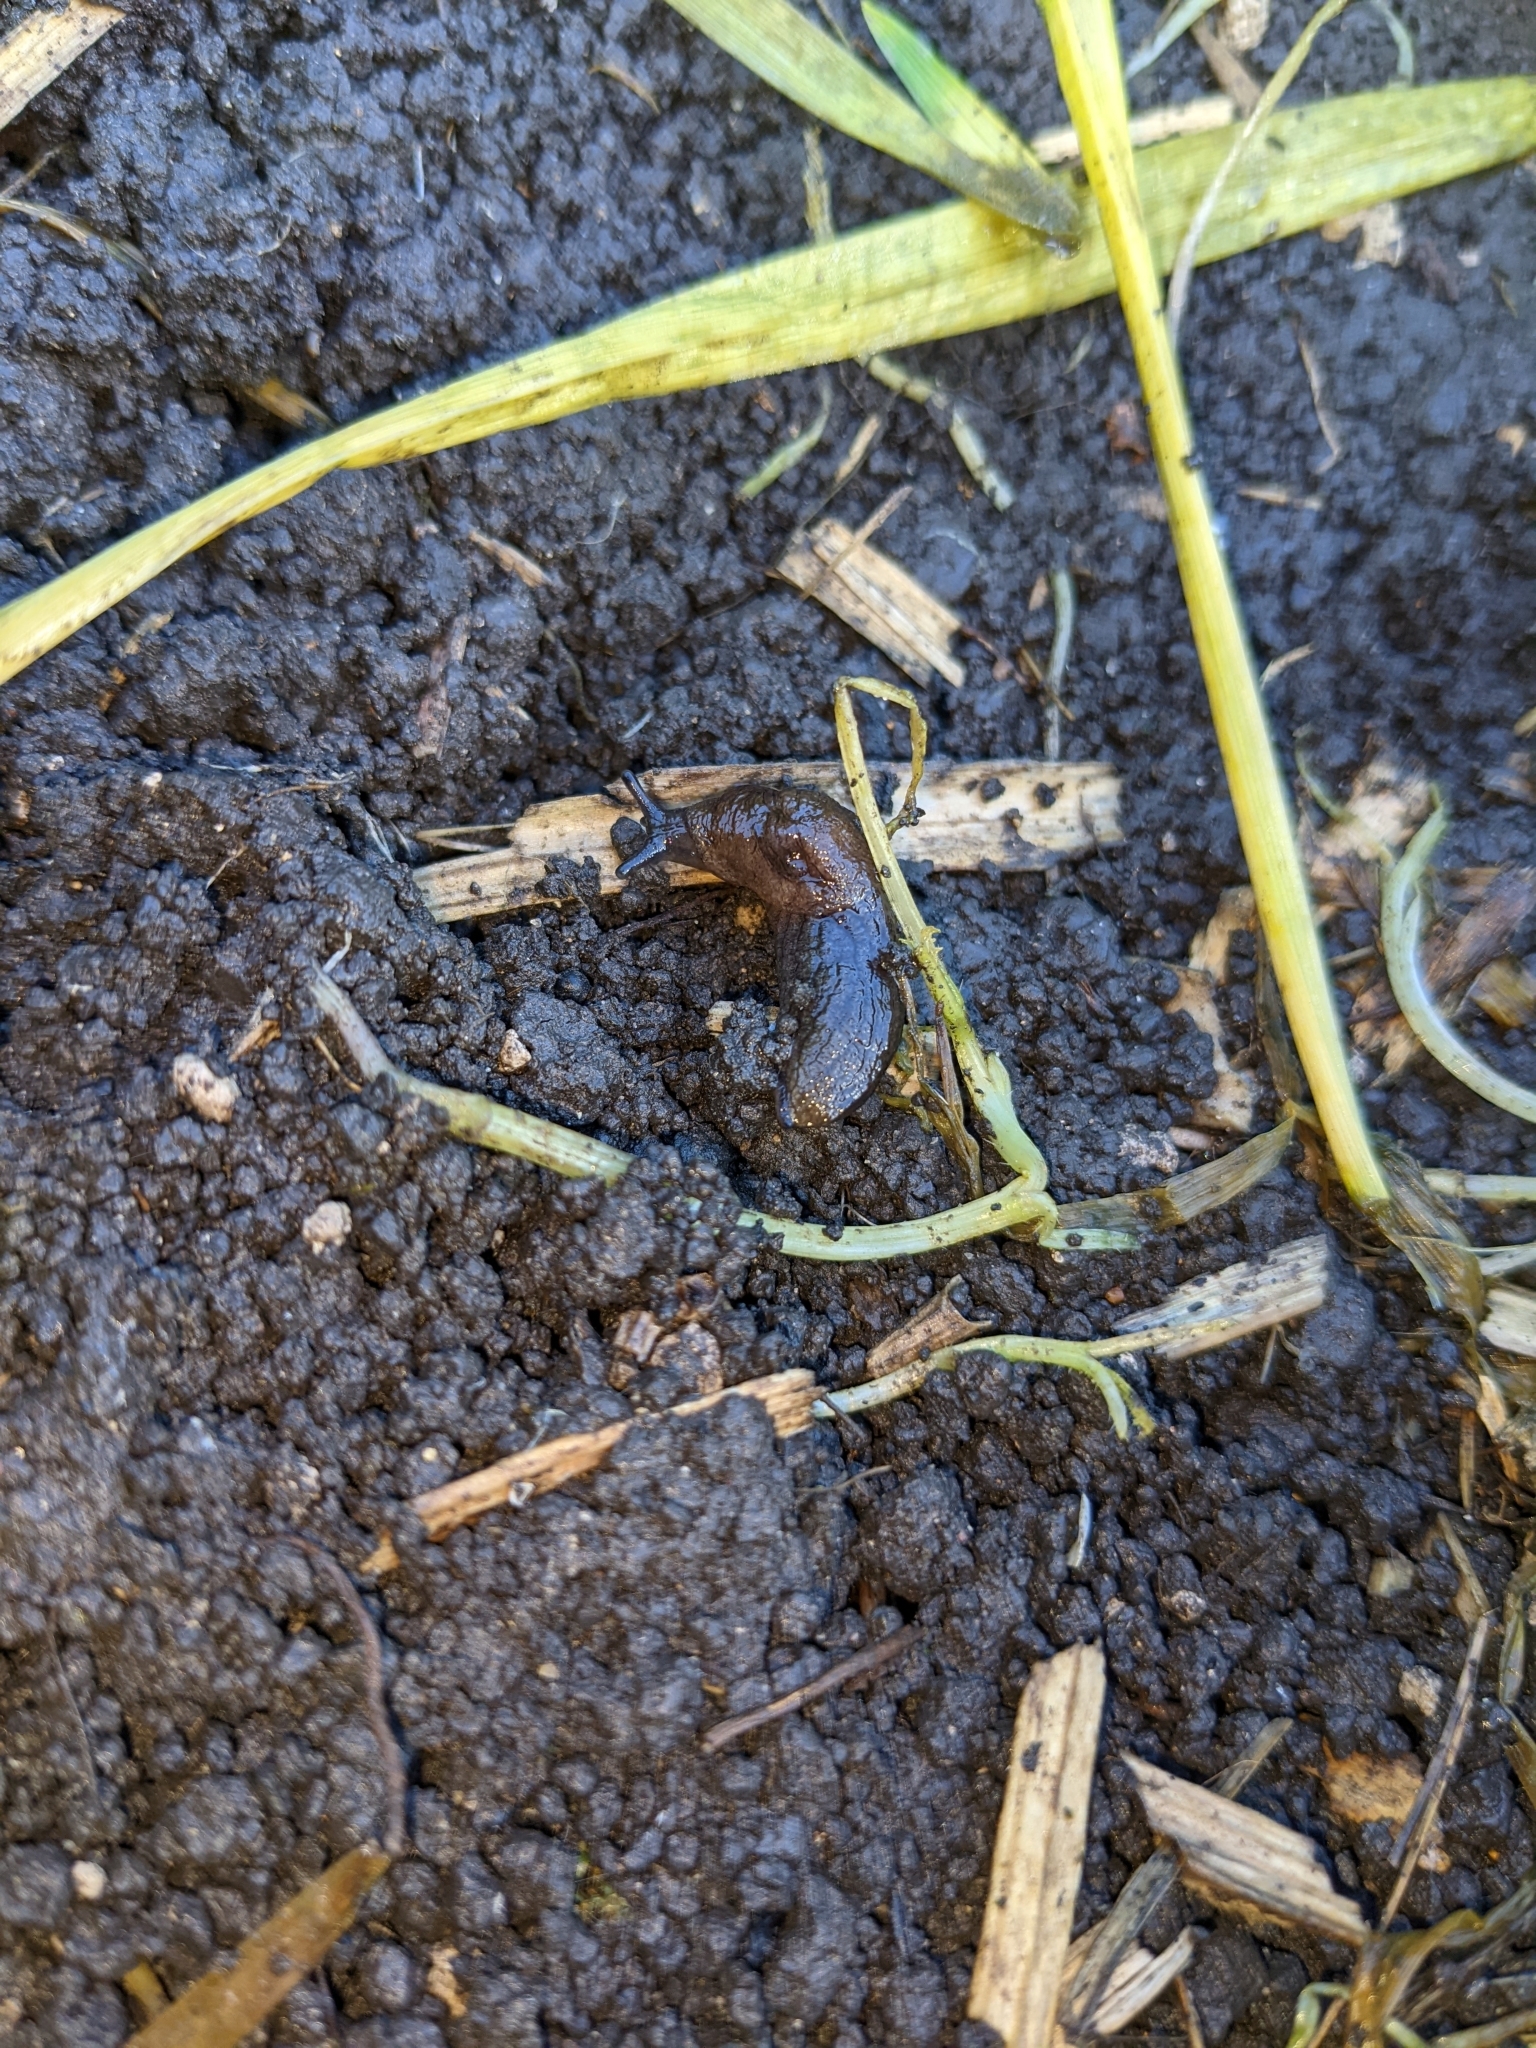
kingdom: Animalia
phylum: Mollusca
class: Gastropoda
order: Stylommatophora
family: Milacidae
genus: Milax
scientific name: Milax gagates
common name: Greenhouse slug
